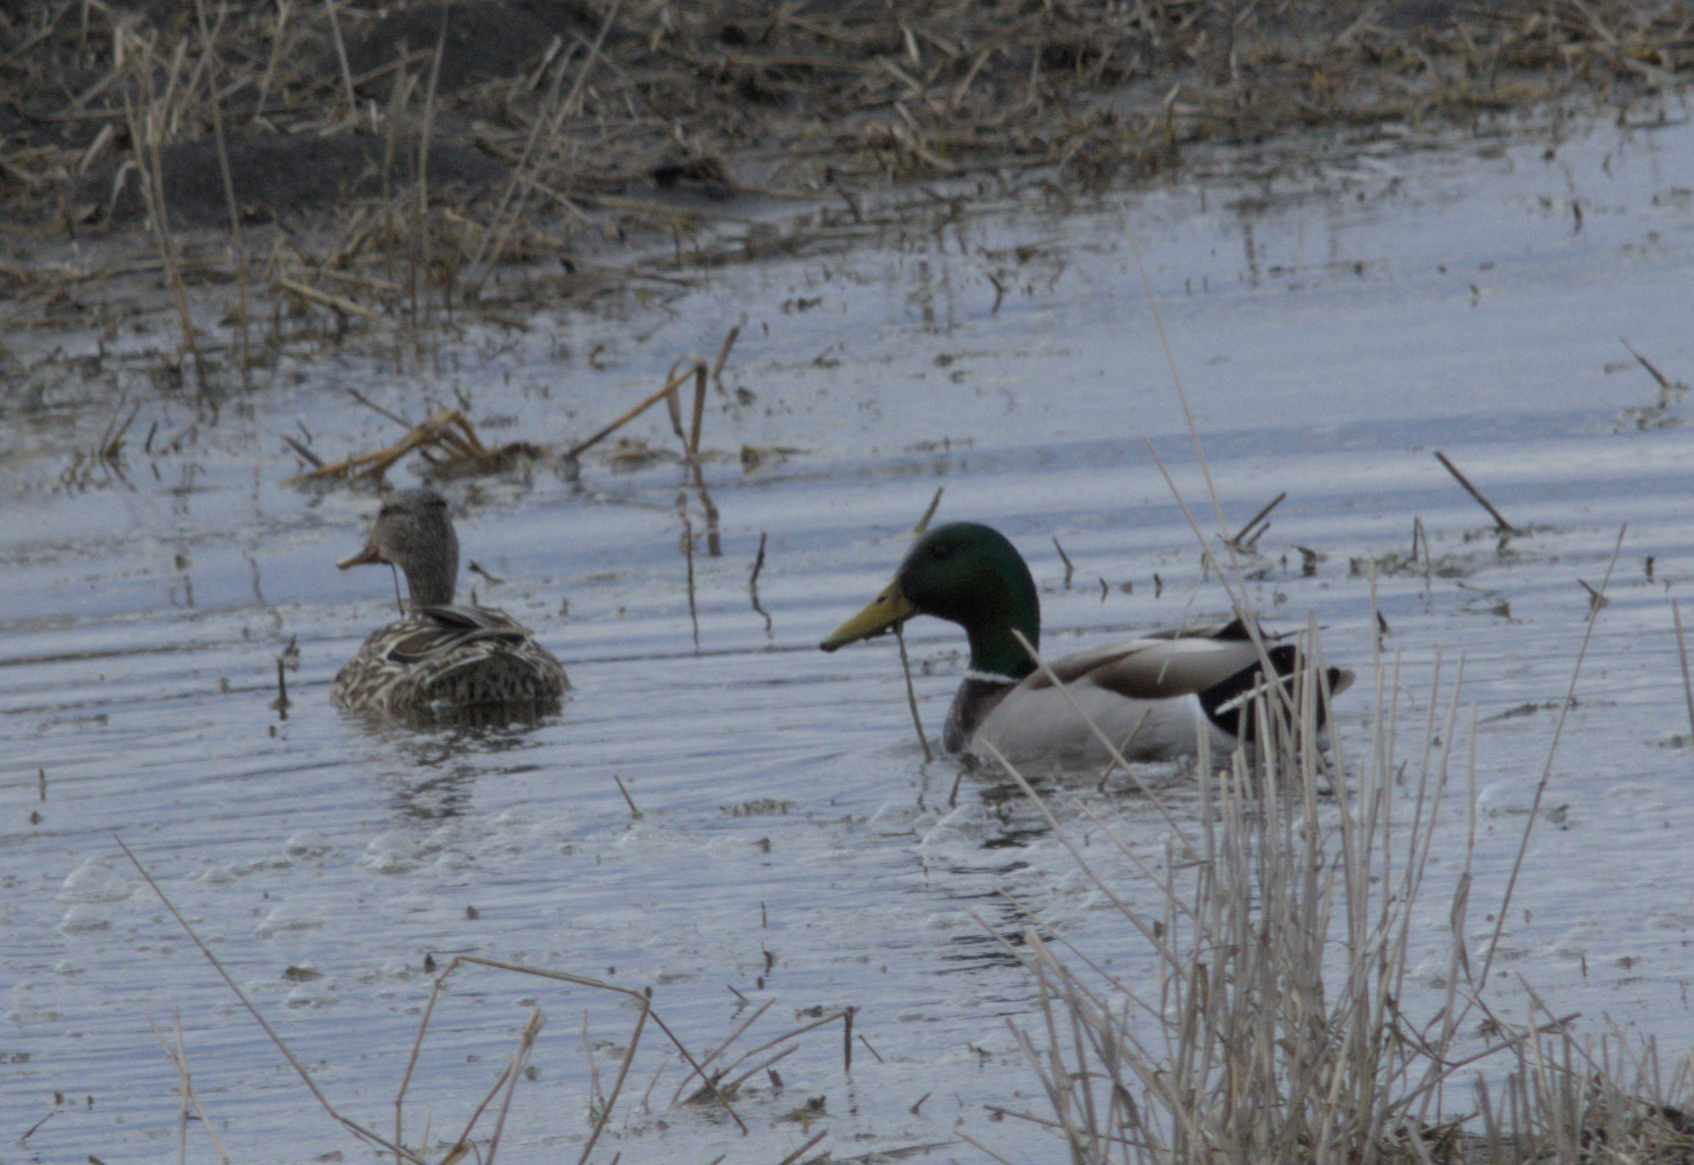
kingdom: Animalia
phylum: Chordata
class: Aves
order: Anseriformes
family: Anatidae
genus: Anas
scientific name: Anas platyrhynchos
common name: Mallard
